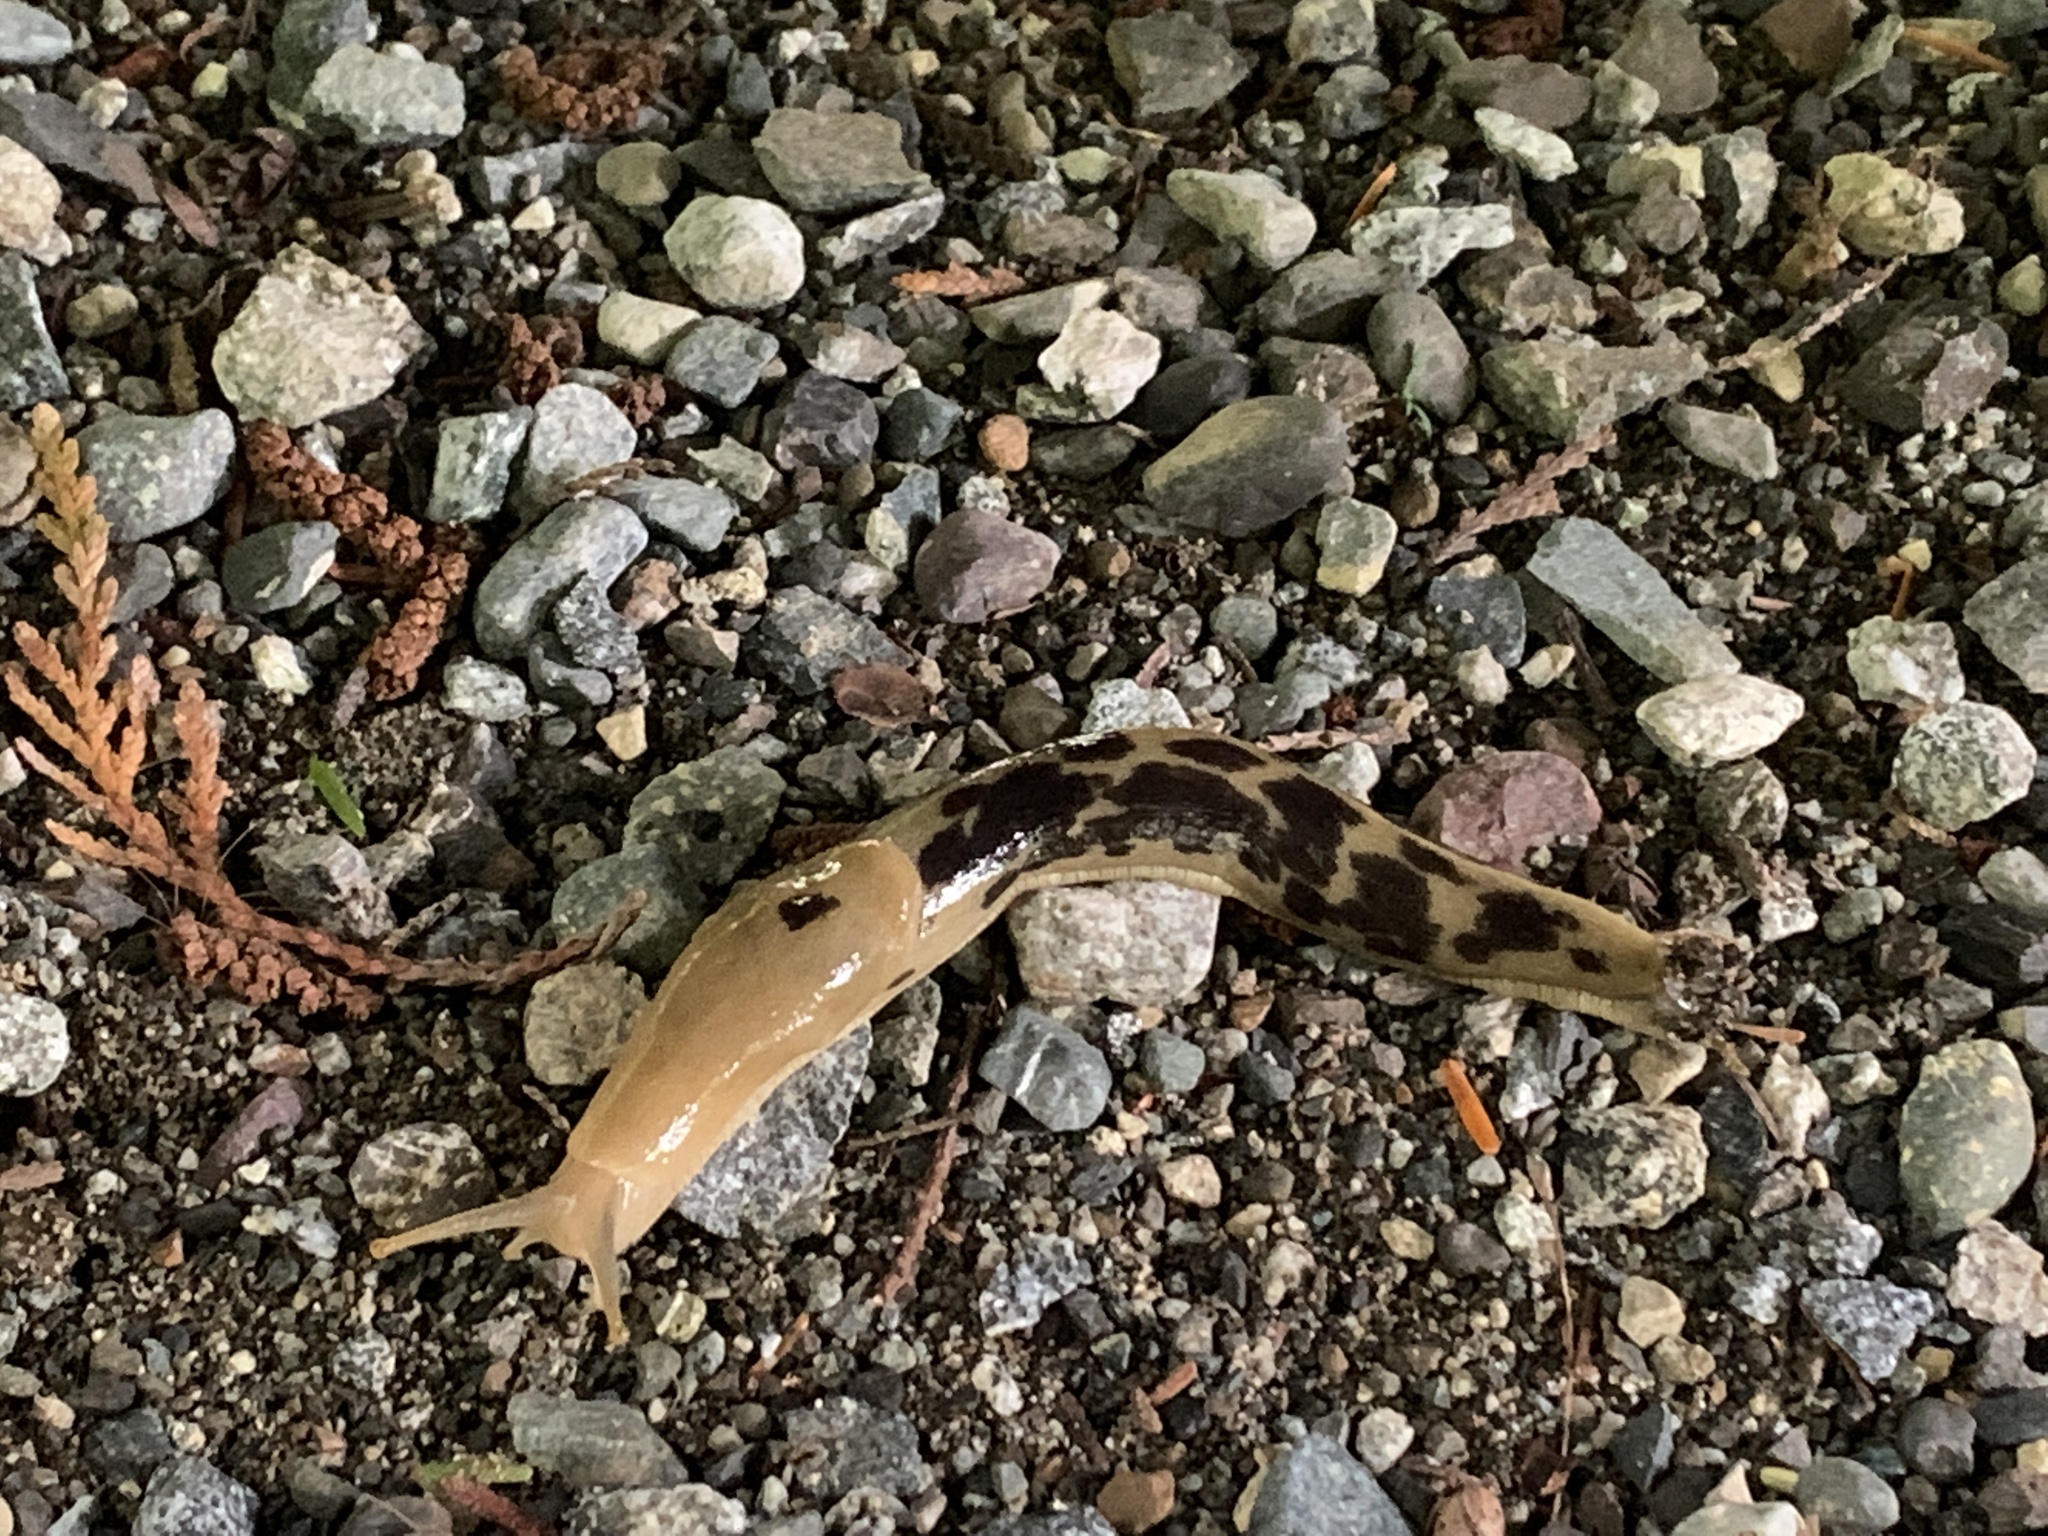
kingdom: Animalia
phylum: Mollusca
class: Gastropoda
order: Stylommatophora
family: Ariolimacidae
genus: Ariolimax
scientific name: Ariolimax columbianus
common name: Pacific banana slug
